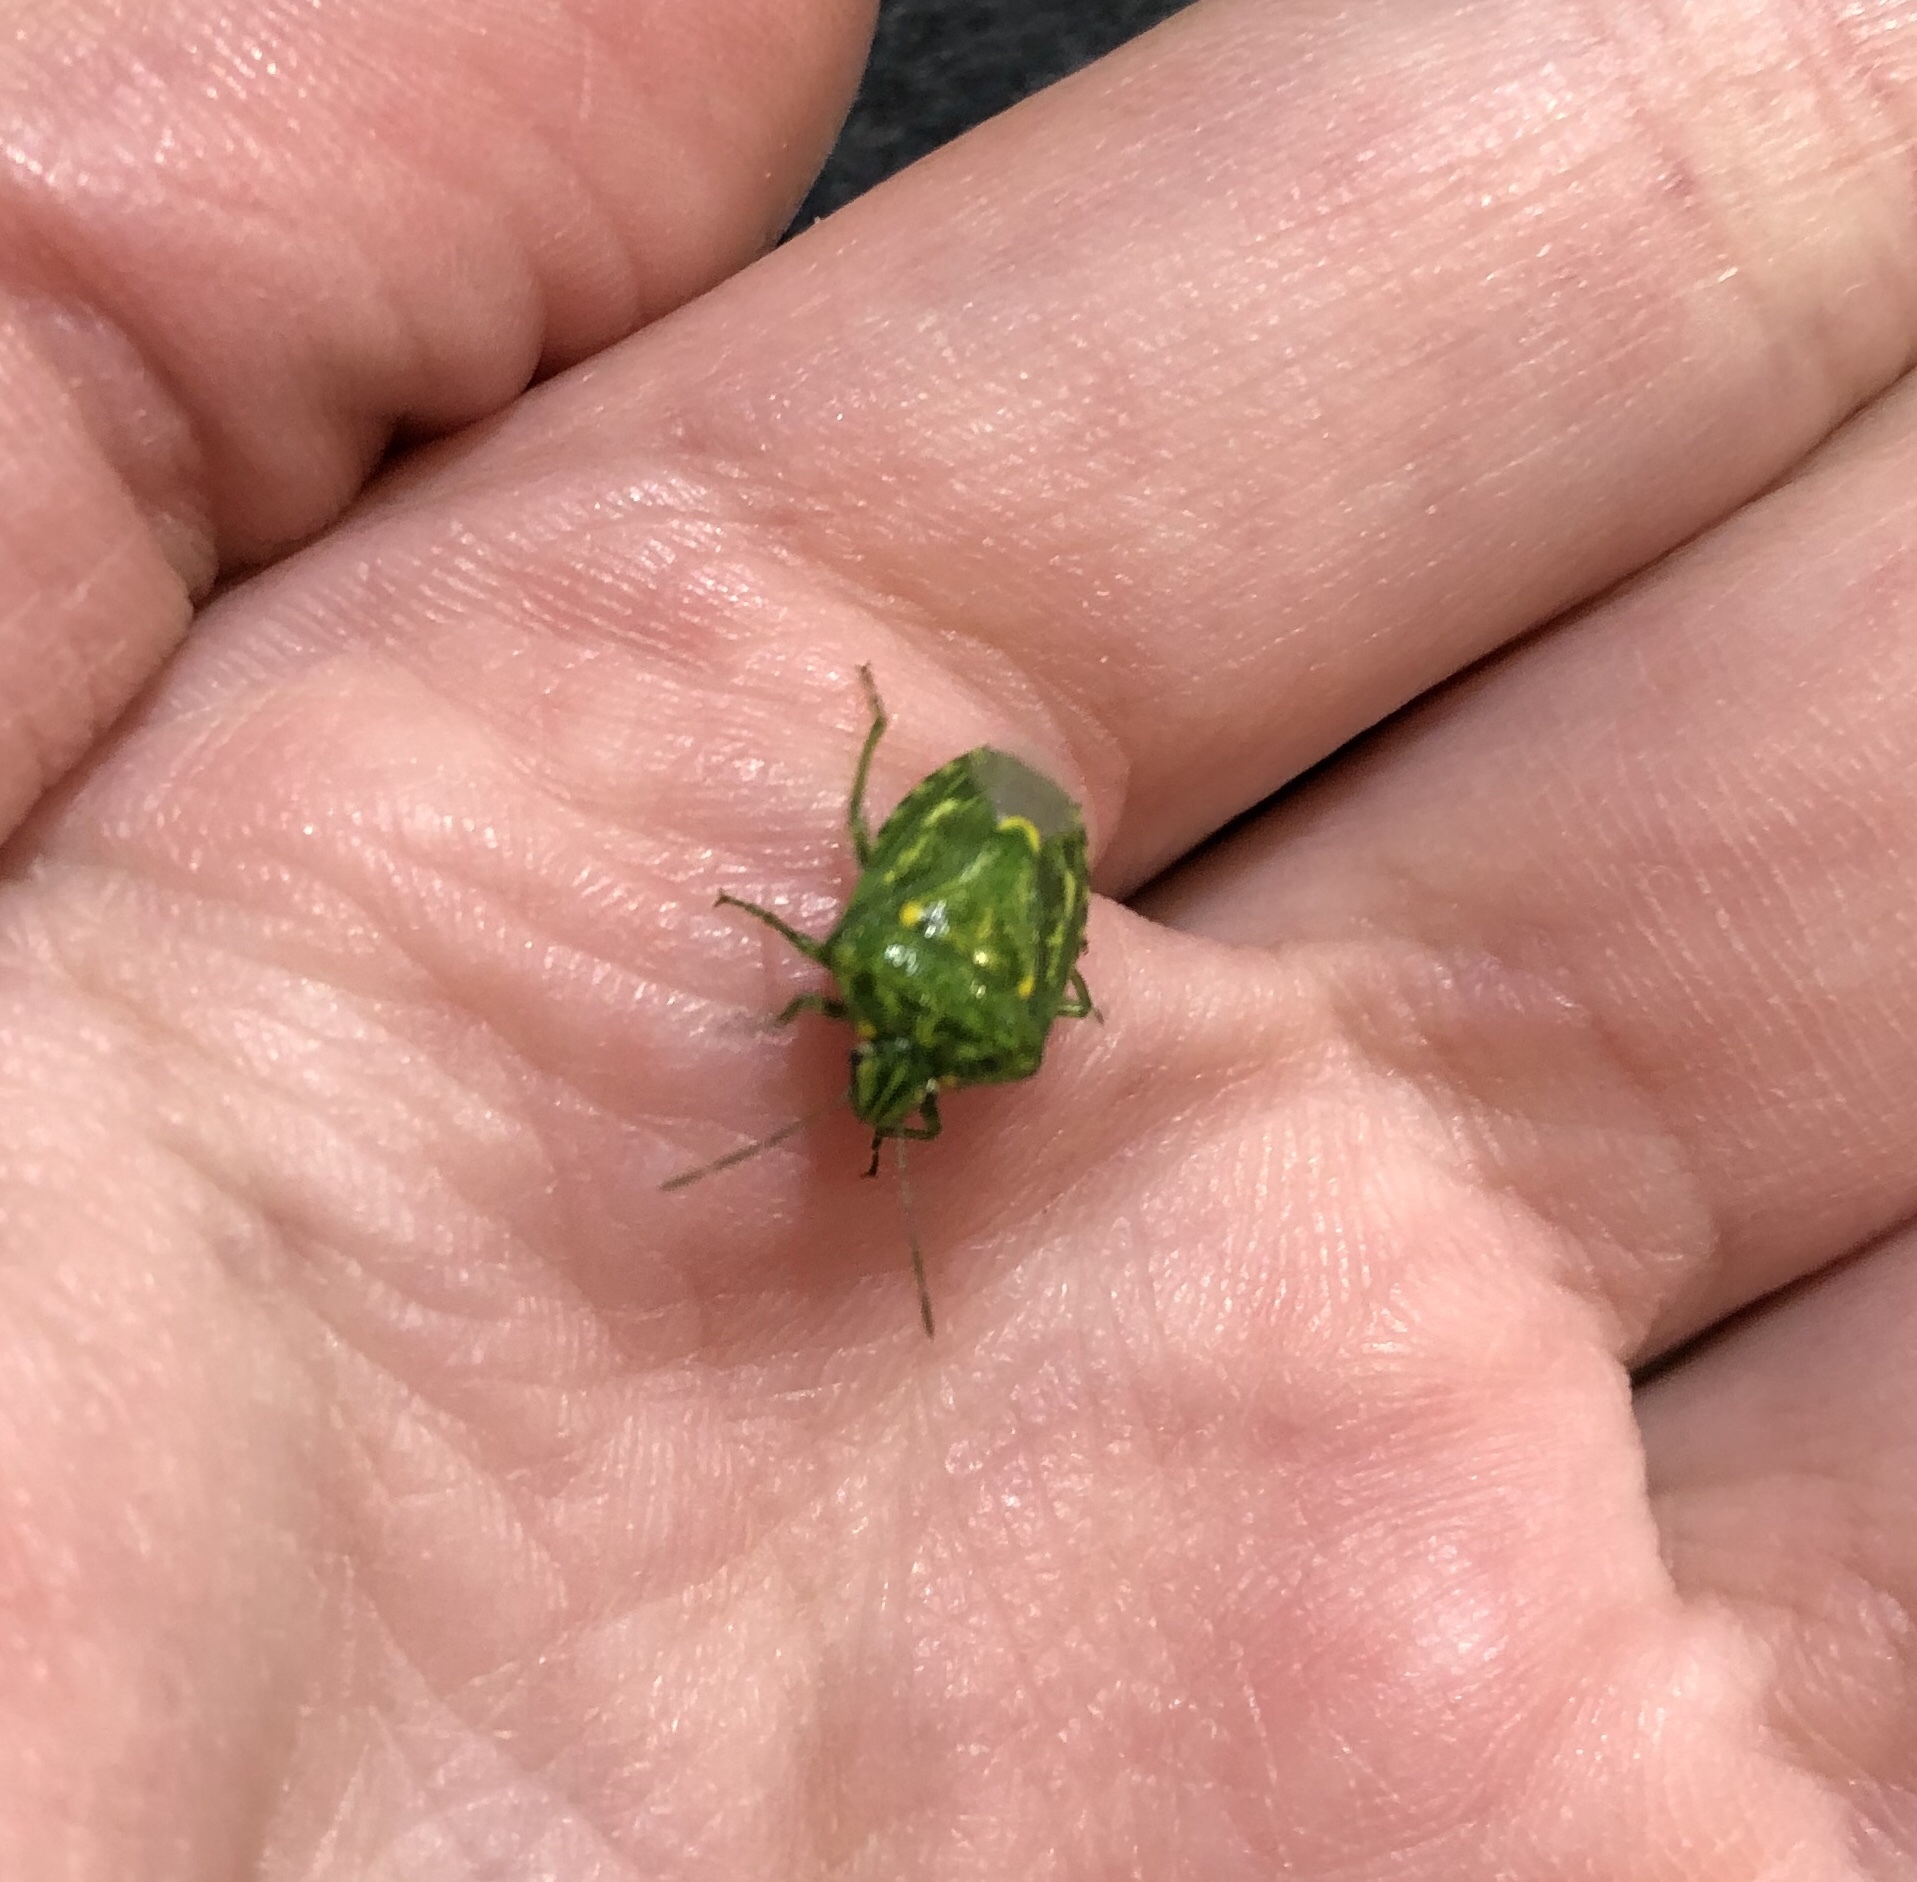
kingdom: Animalia
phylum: Arthropoda
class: Insecta
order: Hemiptera
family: Pentatomidae
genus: Banasa
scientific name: Banasa euchlora
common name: Cedar berry bug
